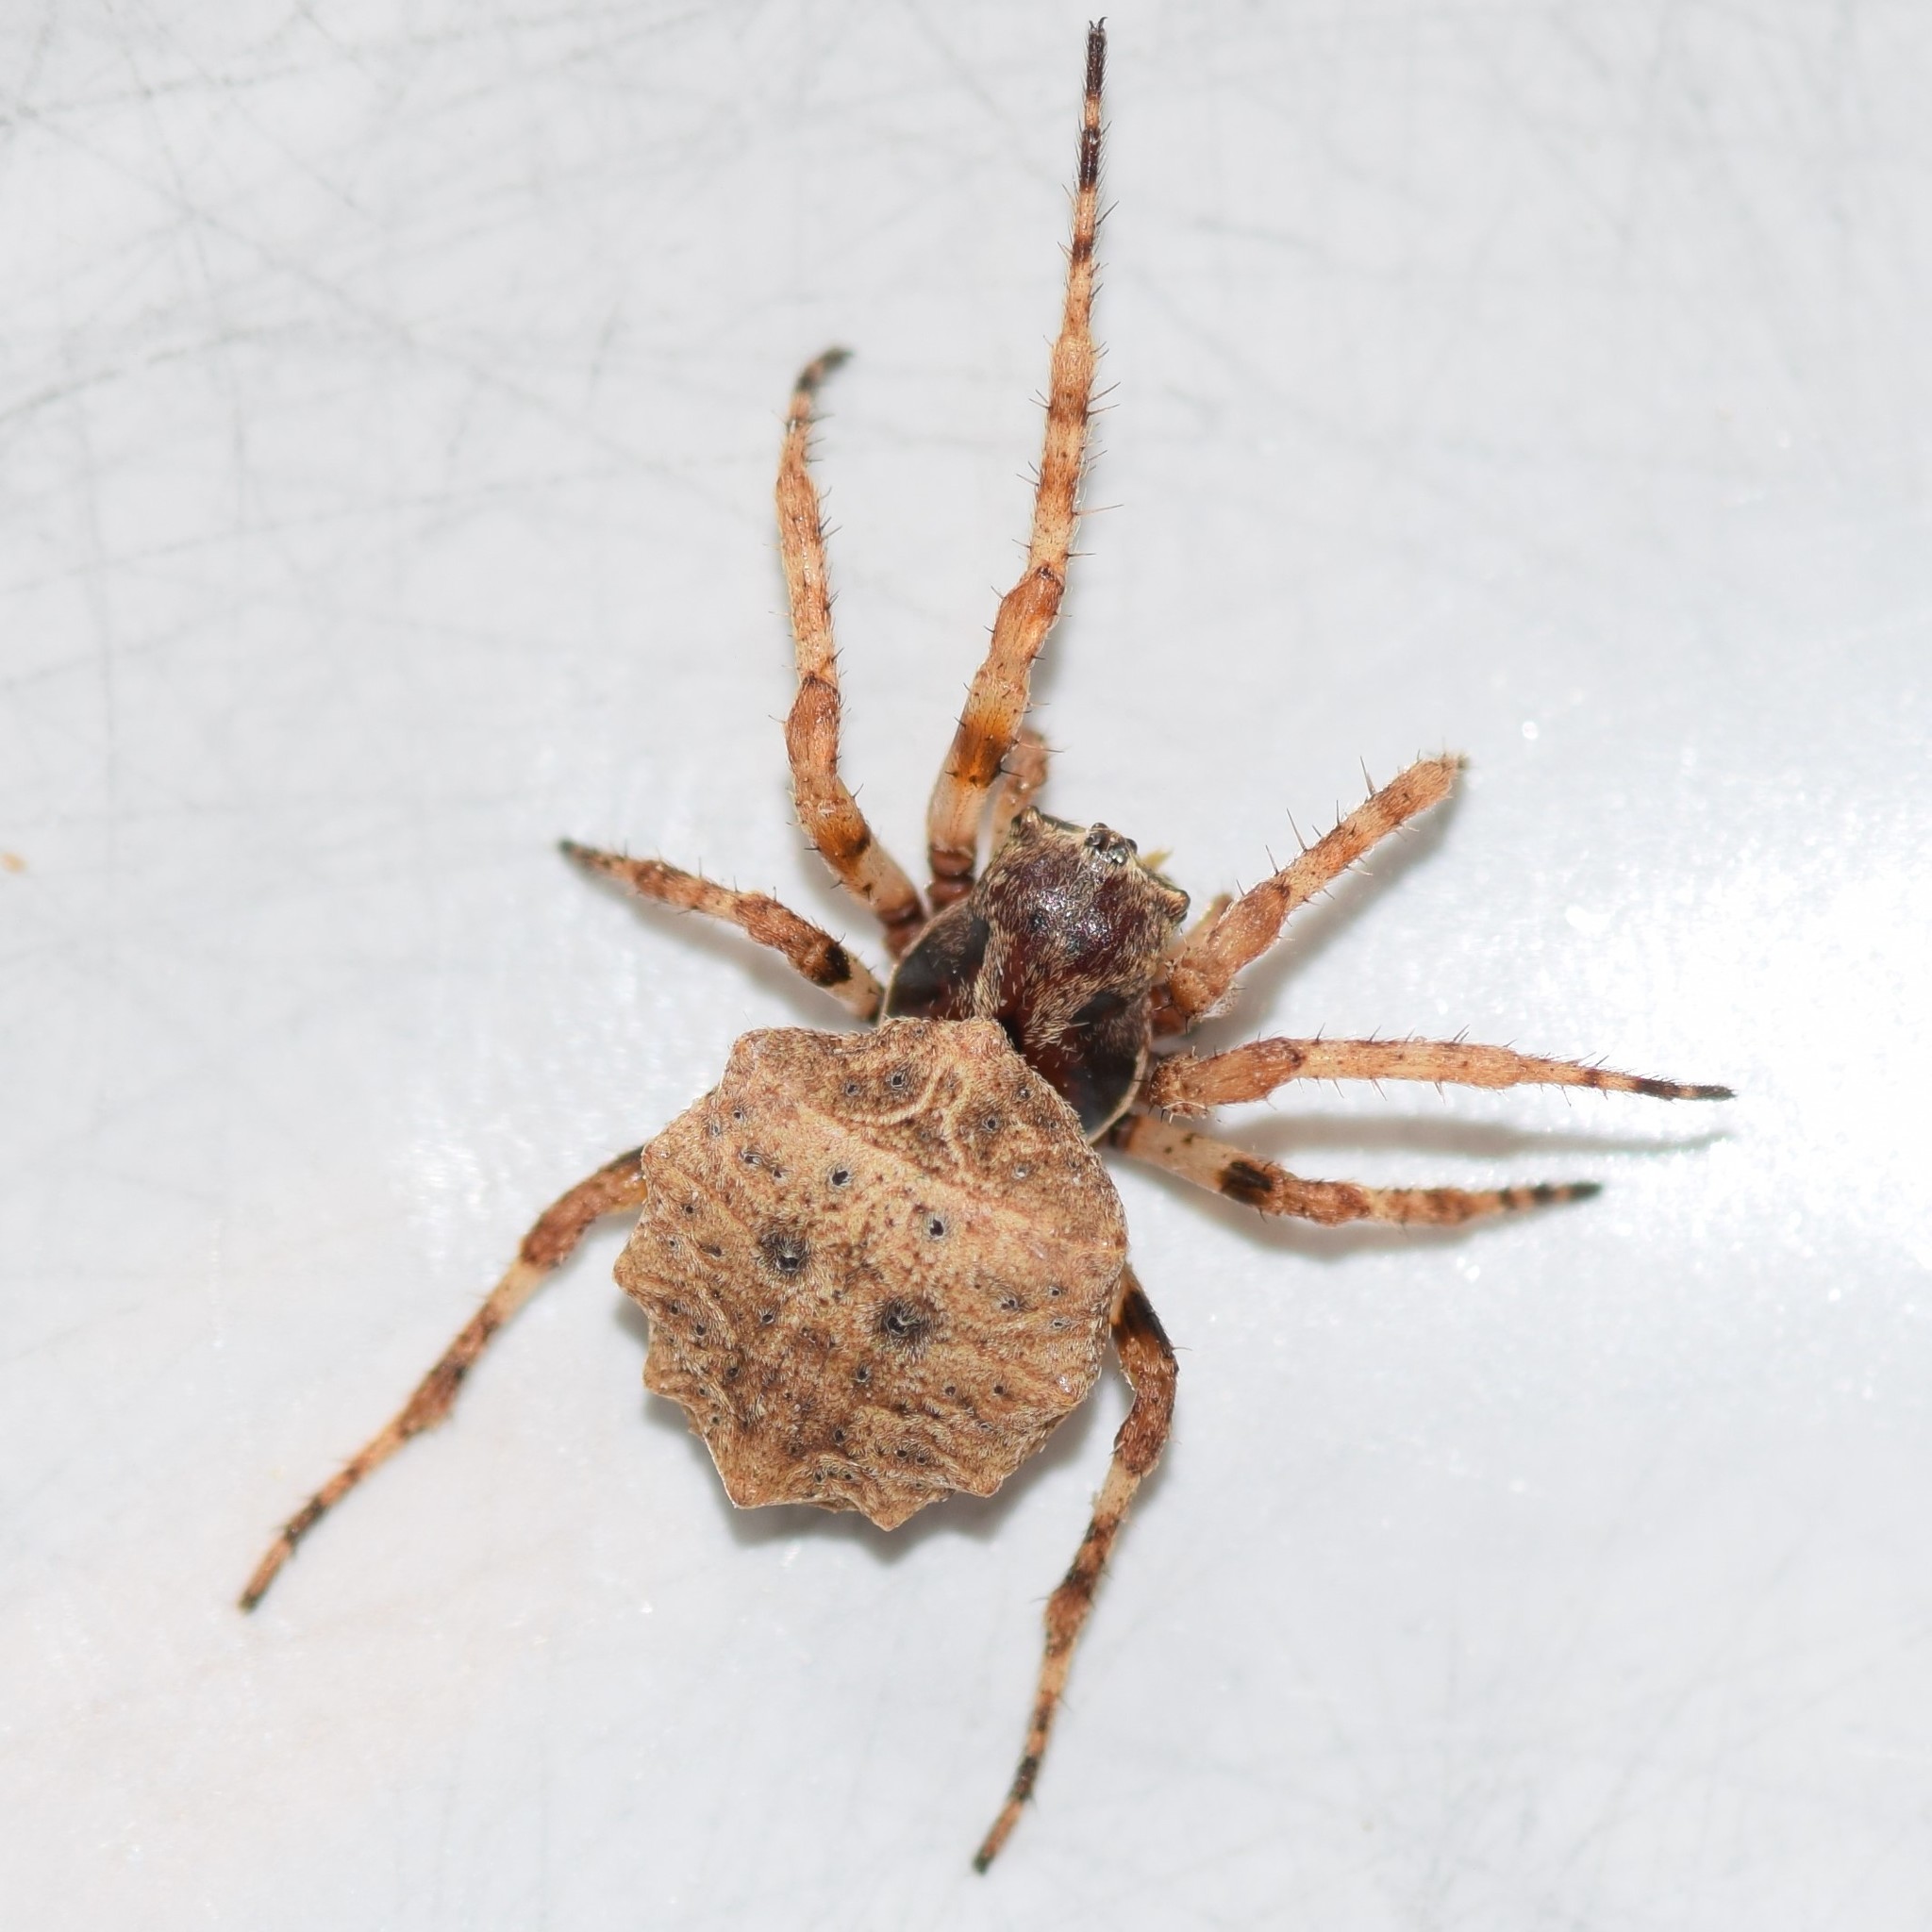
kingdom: Animalia
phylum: Arthropoda
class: Arachnida
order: Araneae
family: Araneidae
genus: Acanthepeira
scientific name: Acanthepeira cherokee
